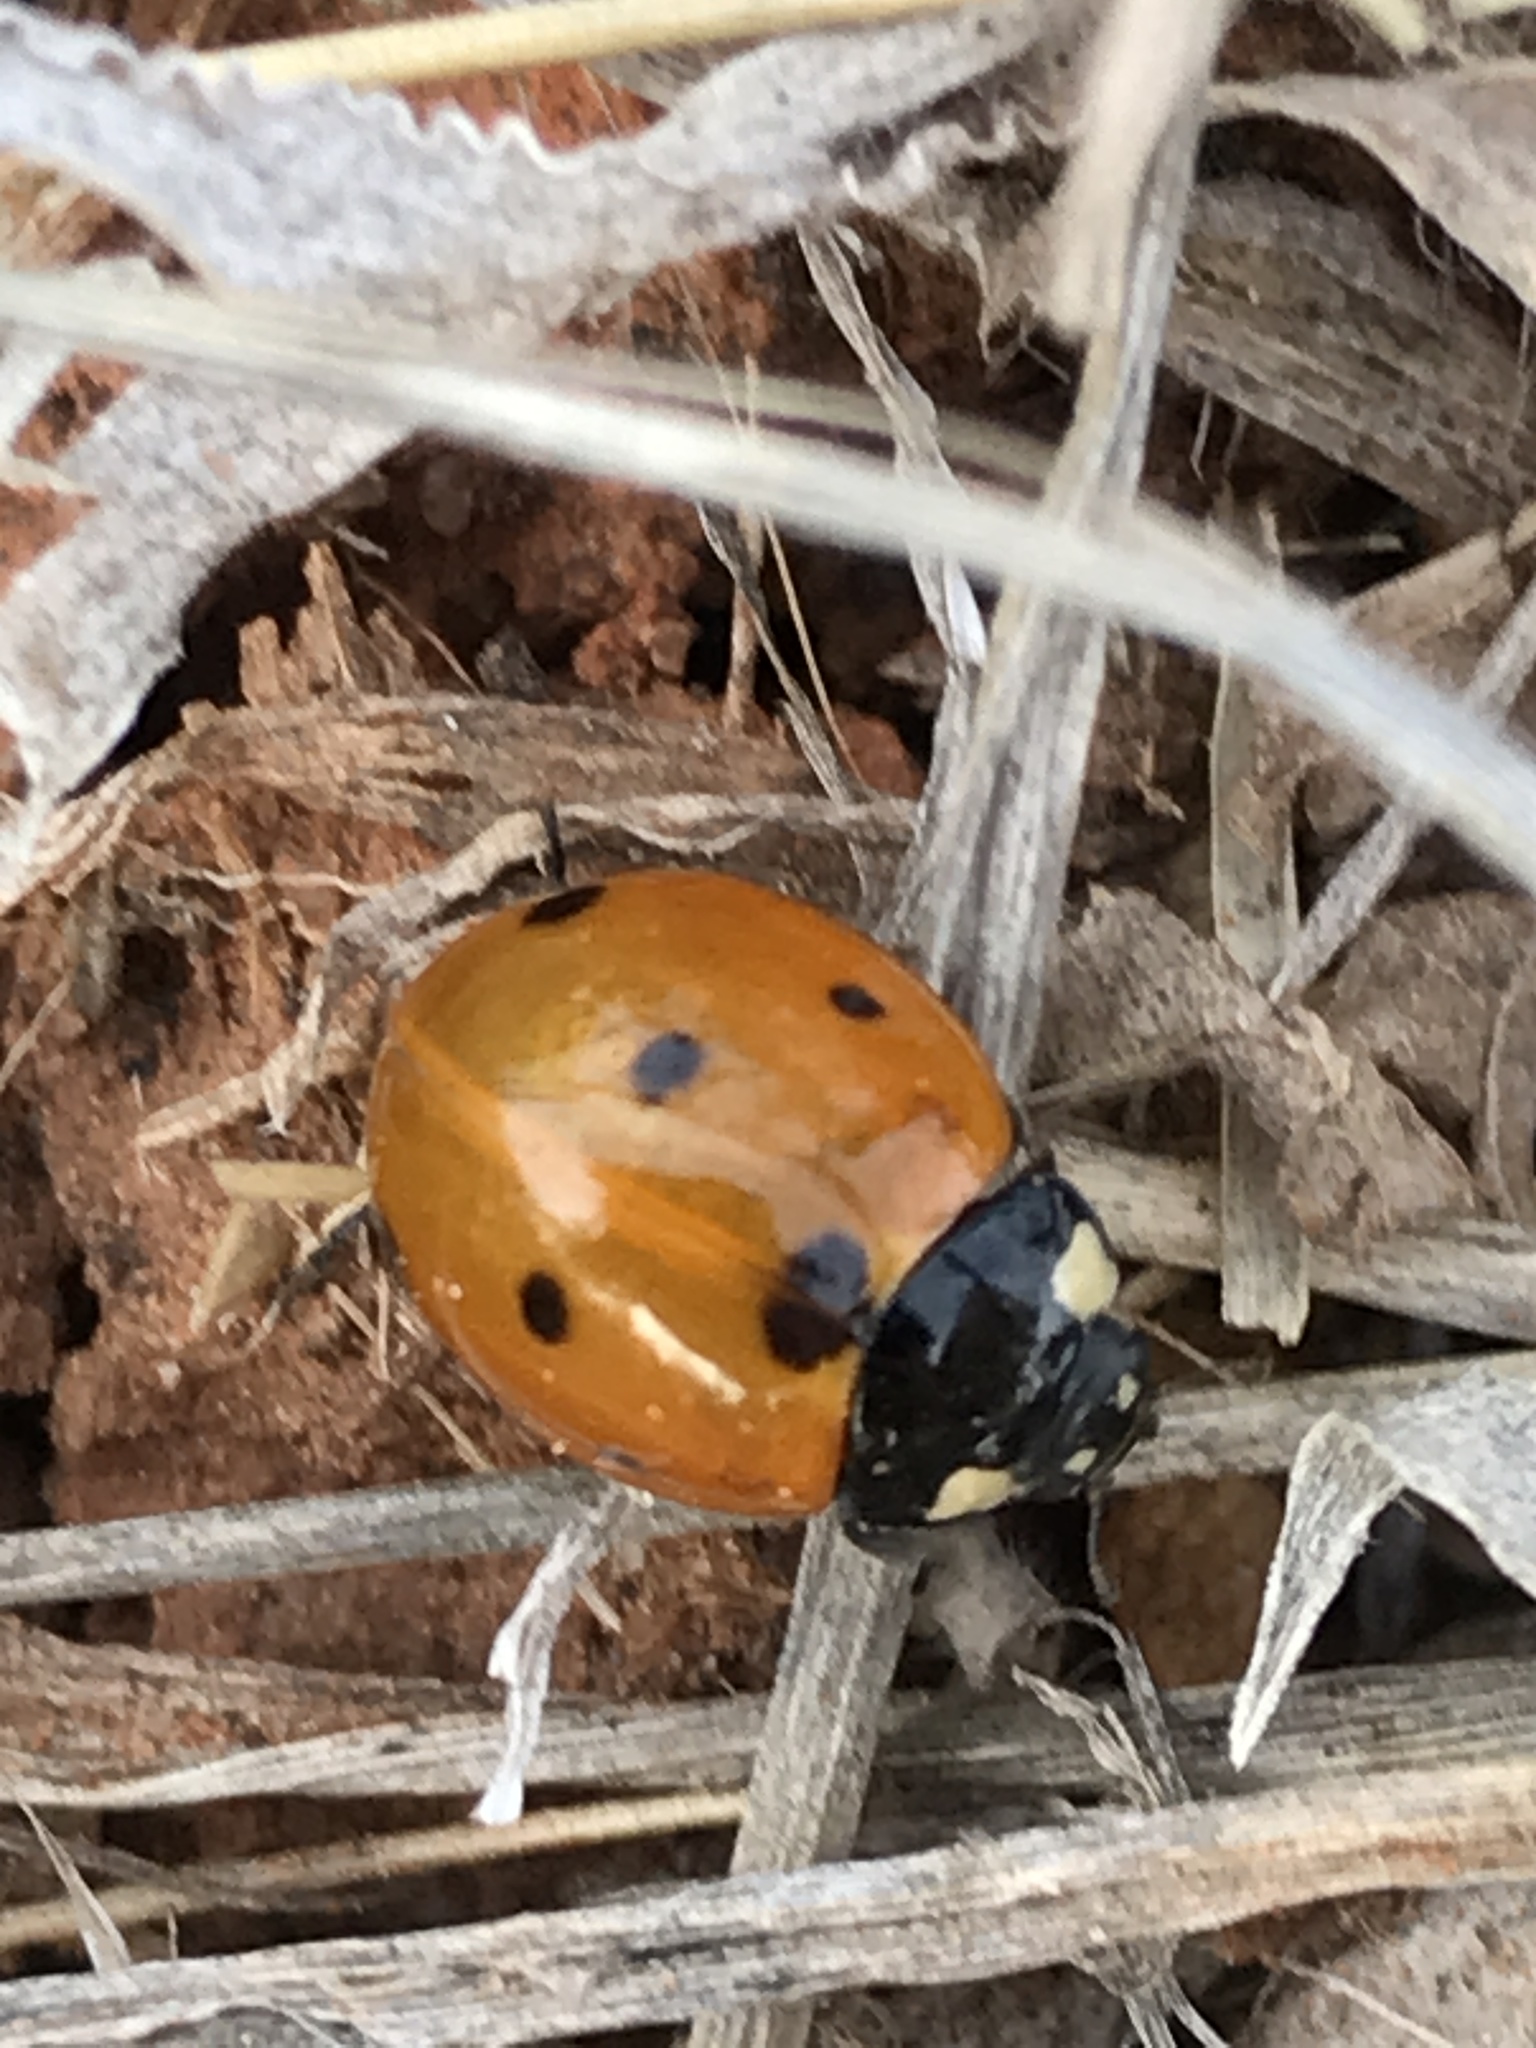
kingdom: Animalia
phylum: Arthropoda
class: Insecta
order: Coleoptera
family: Coccinellidae
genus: Coccinella
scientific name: Coccinella septempunctata
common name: Sevenspotted lady beetle
